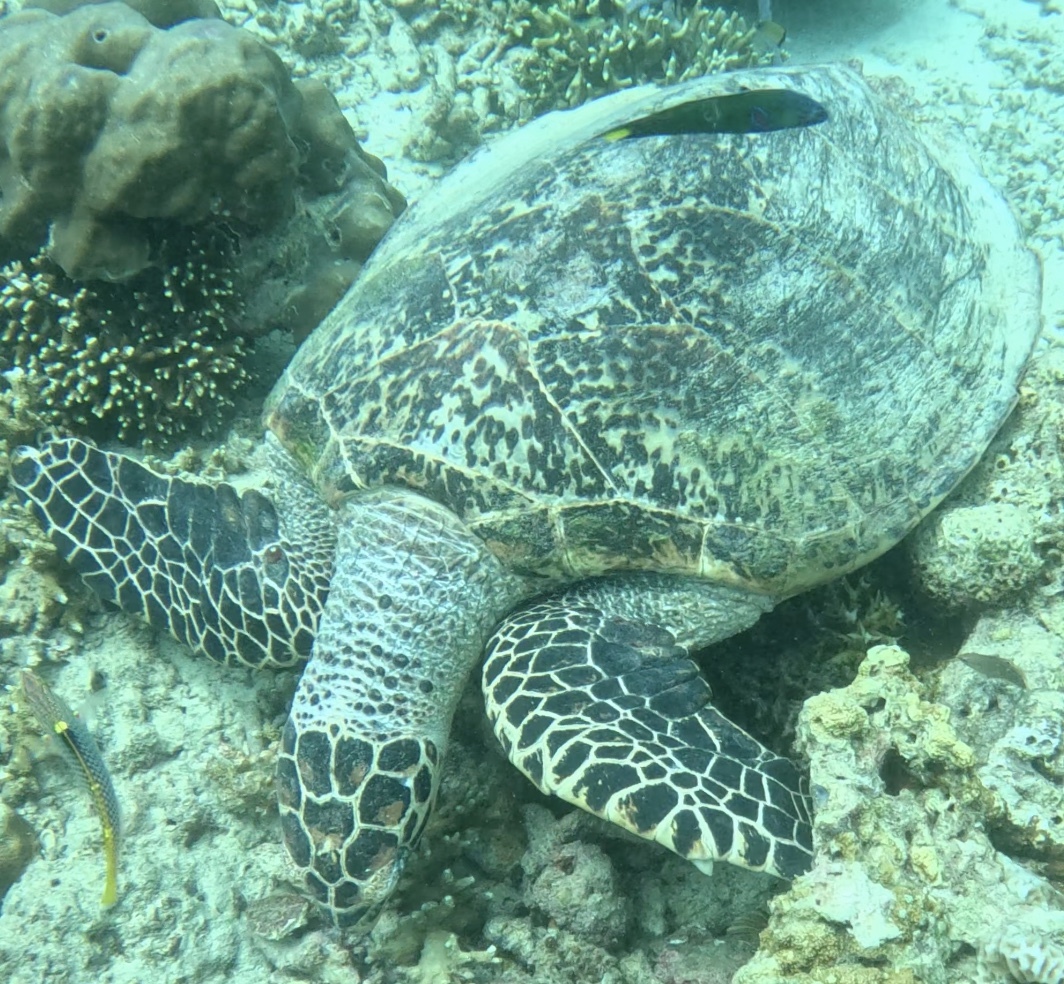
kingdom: Animalia
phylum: Chordata
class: Testudines
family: Cheloniidae
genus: Eretmochelys
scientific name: Eretmochelys imbricata
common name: Hawksbill turtle
